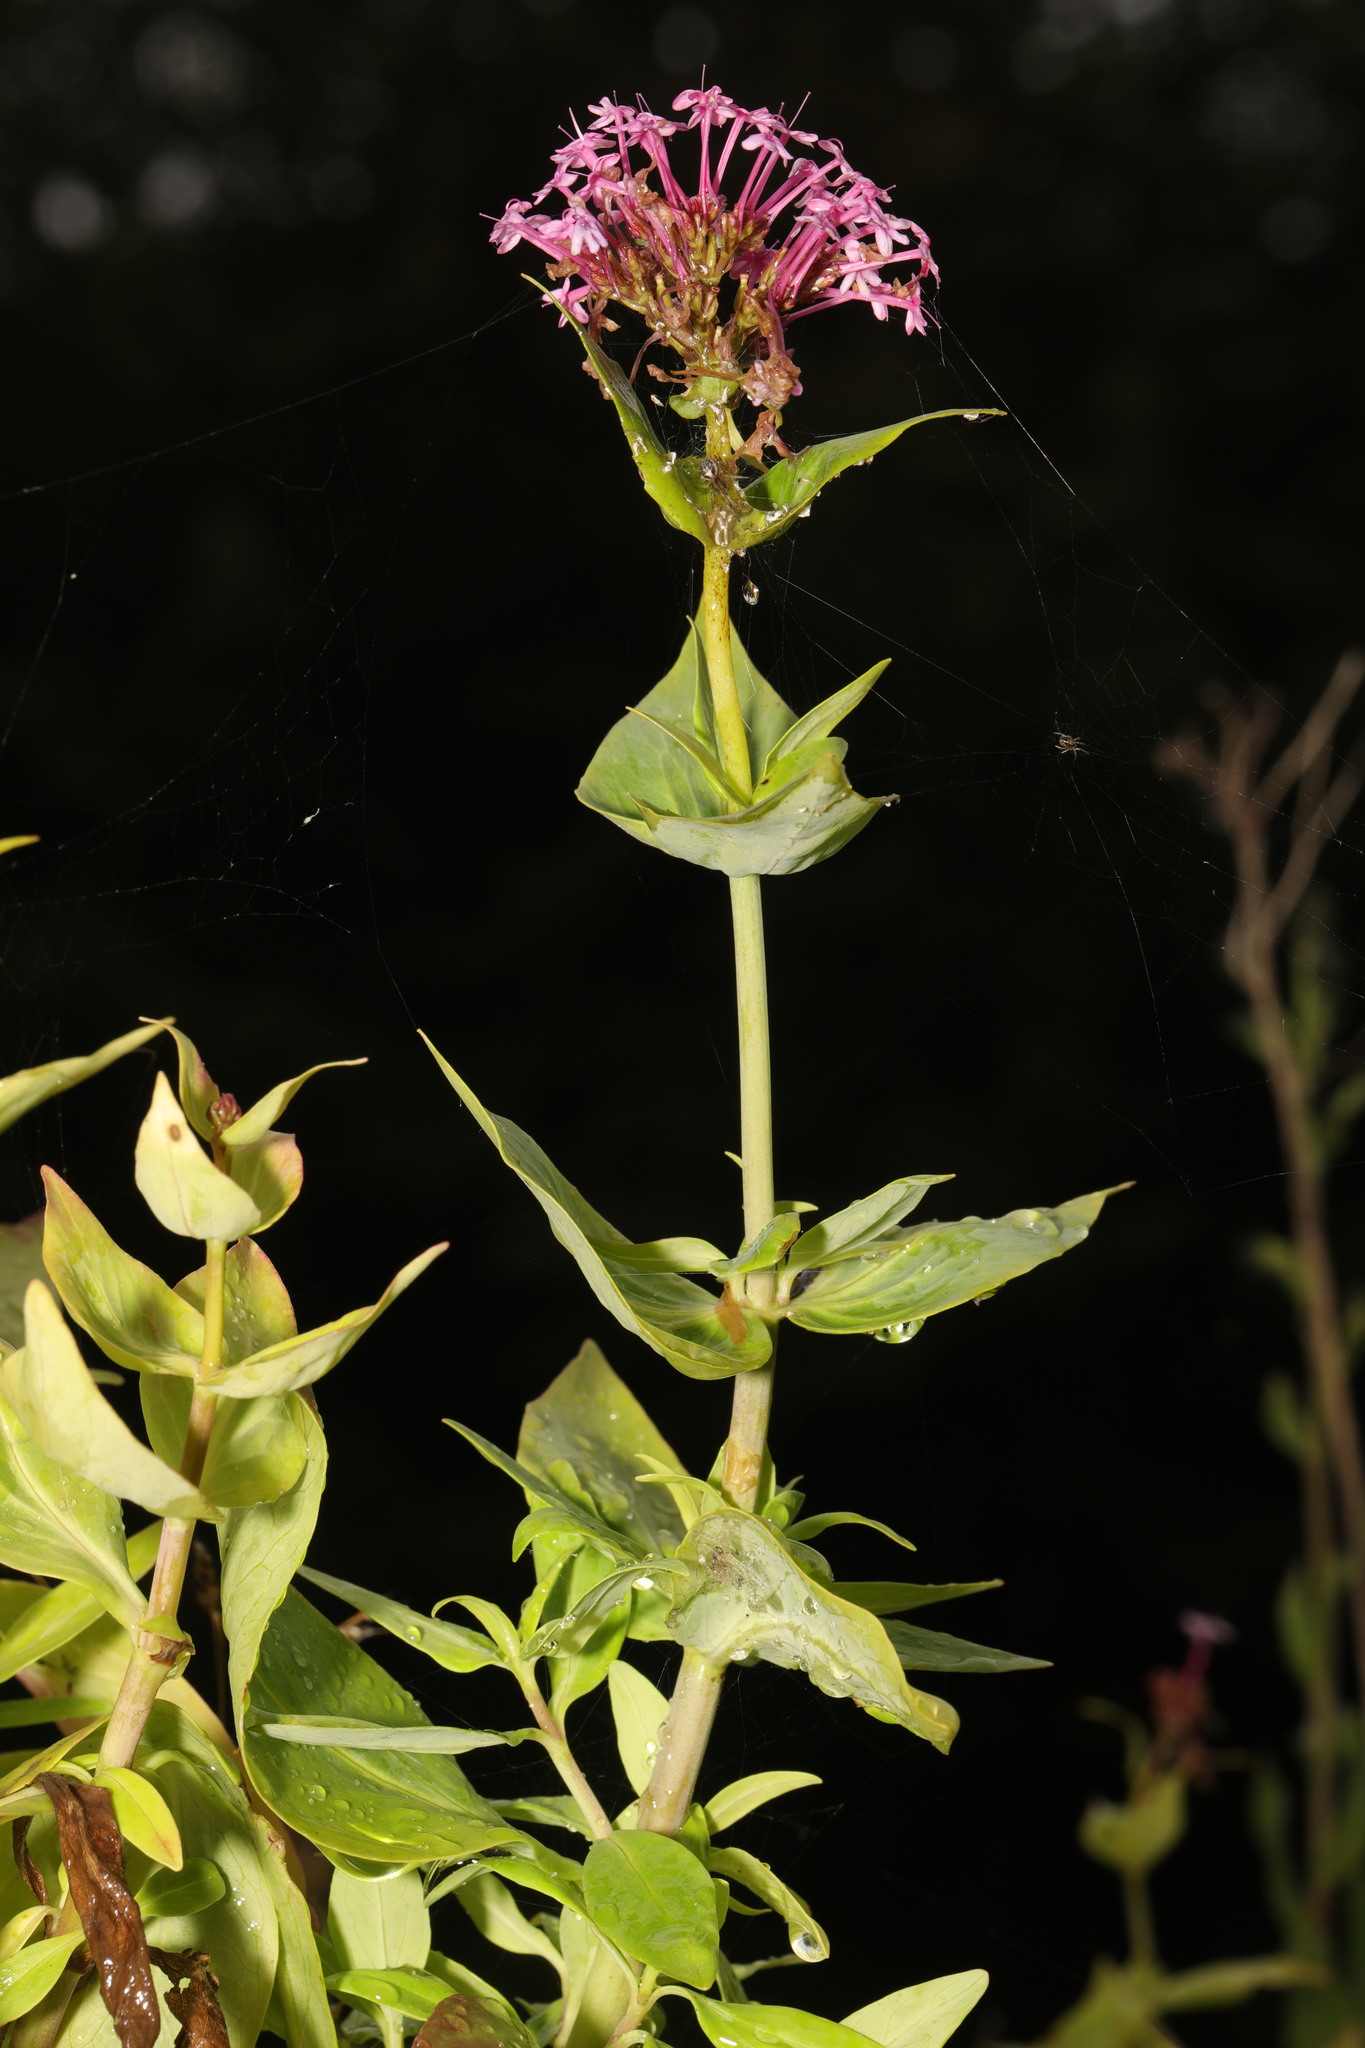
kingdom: Plantae
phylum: Tracheophyta
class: Magnoliopsida
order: Dipsacales
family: Caprifoliaceae
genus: Centranthus
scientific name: Centranthus ruber
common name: Red valerian
